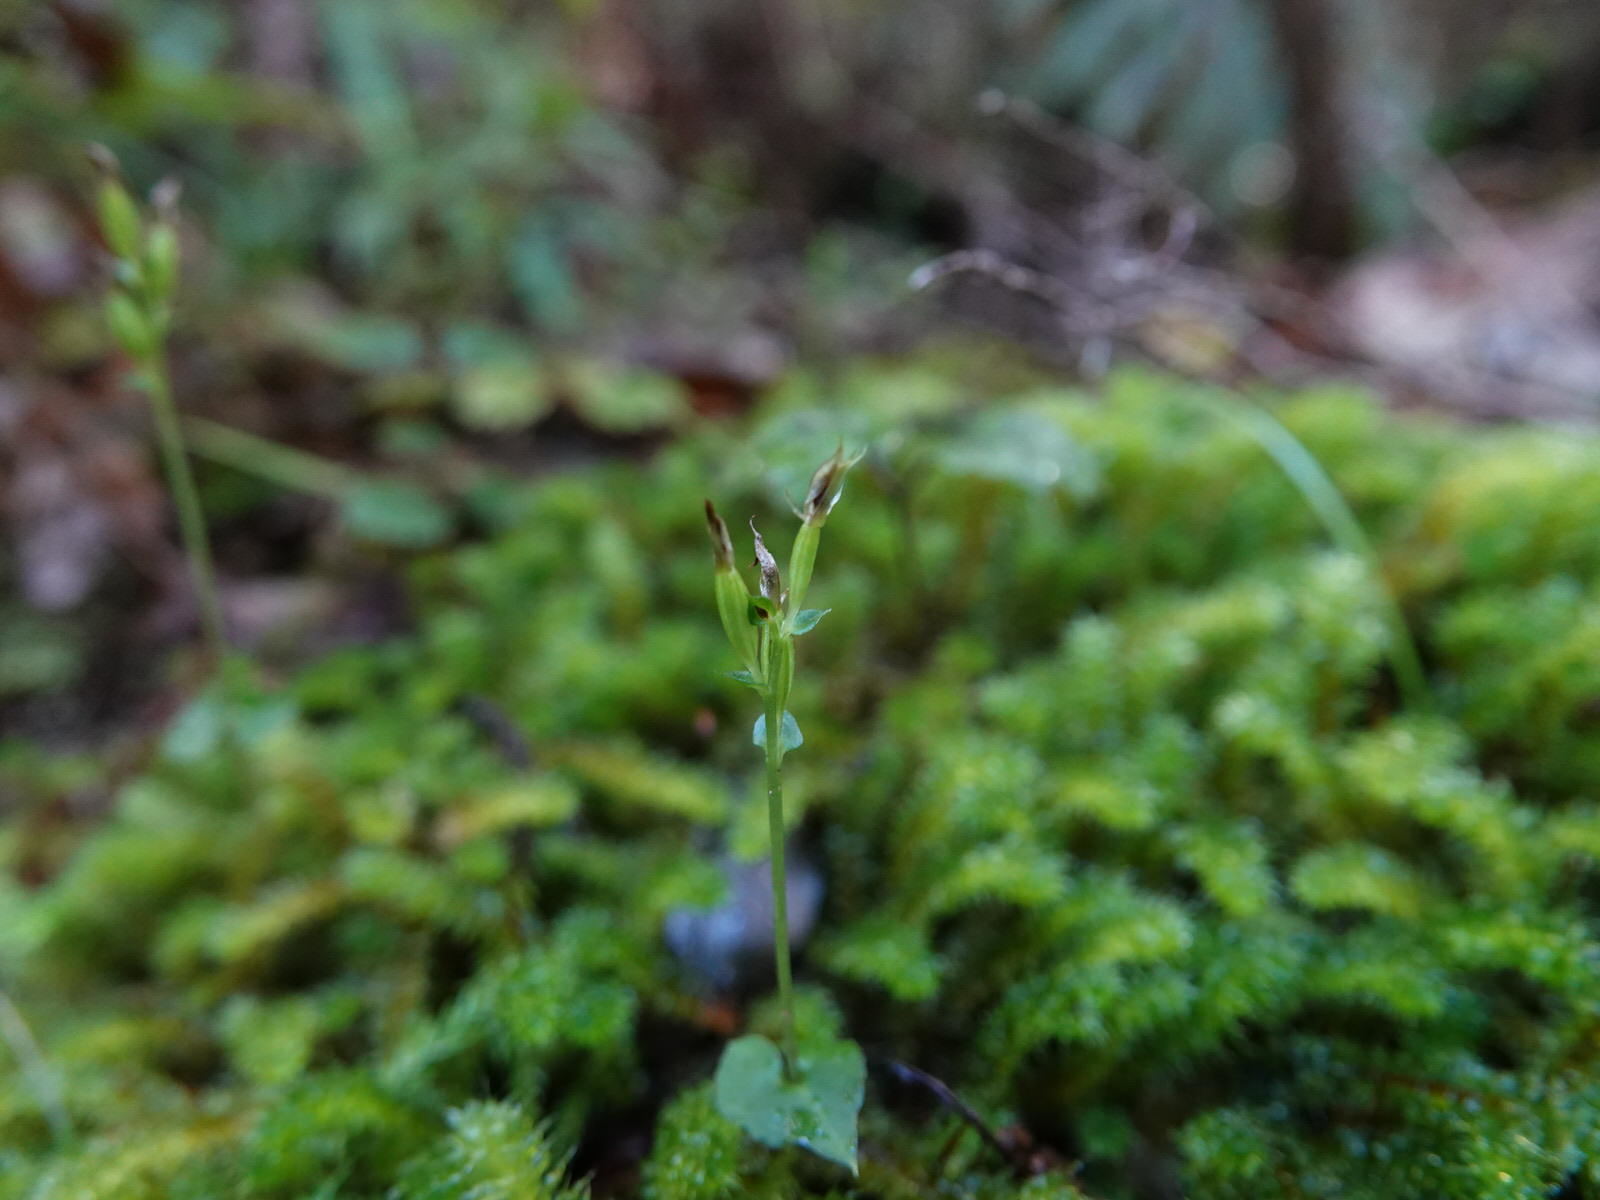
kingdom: Plantae
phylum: Tracheophyta
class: Liliopsida
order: Asparagales
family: Orchidaceae
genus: Acianthus
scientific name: Acianthus sinclairii
